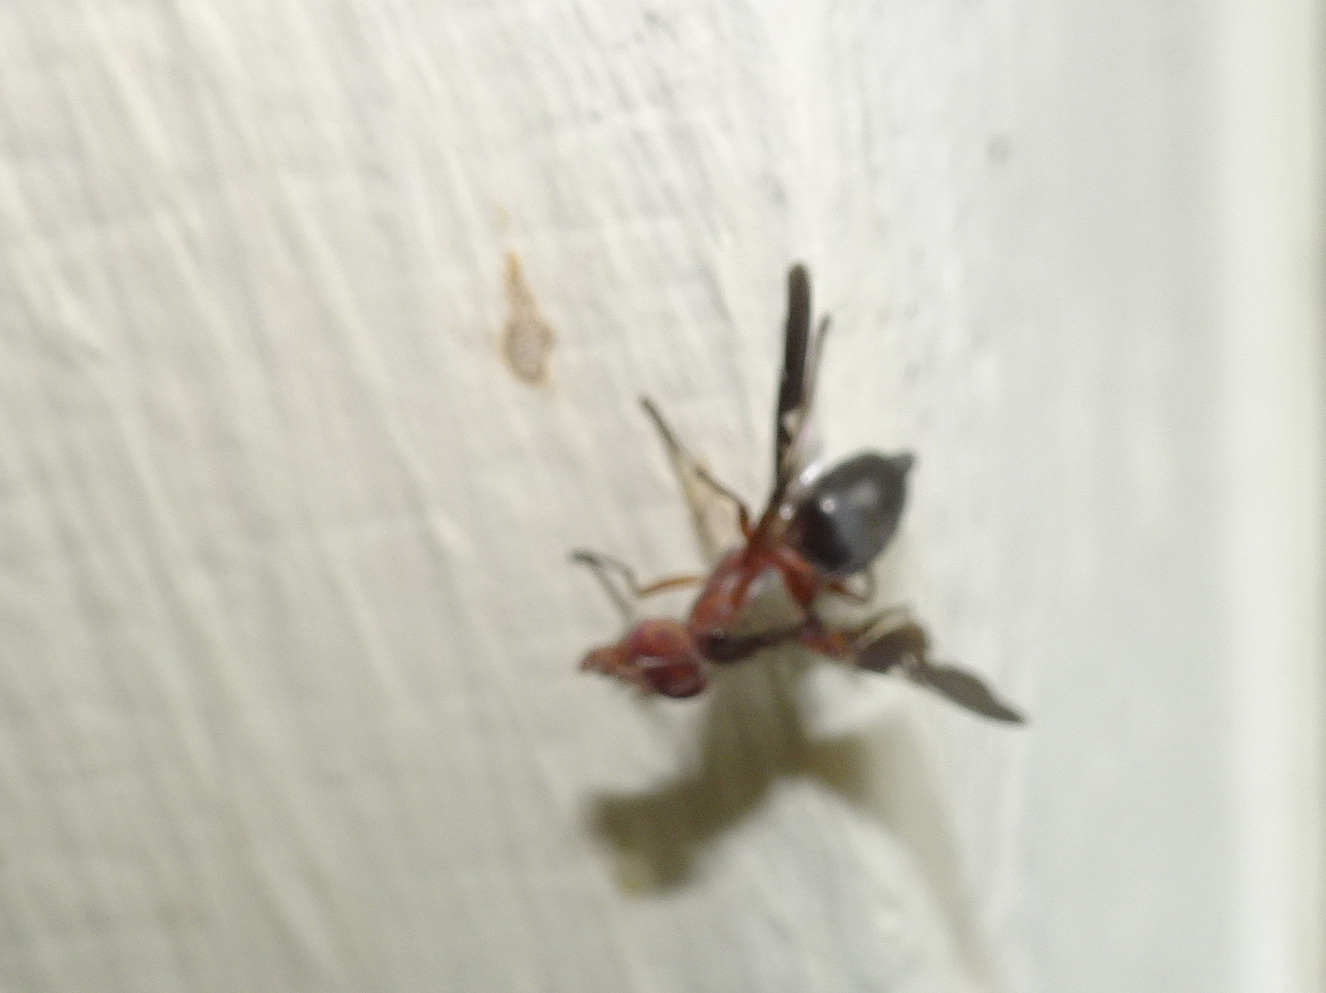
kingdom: Animalia
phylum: Arthropoda
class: Insecta
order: Diptera
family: Ulidiidae
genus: Delphinia
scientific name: Delphinia picta
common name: Common picture-winged fly
